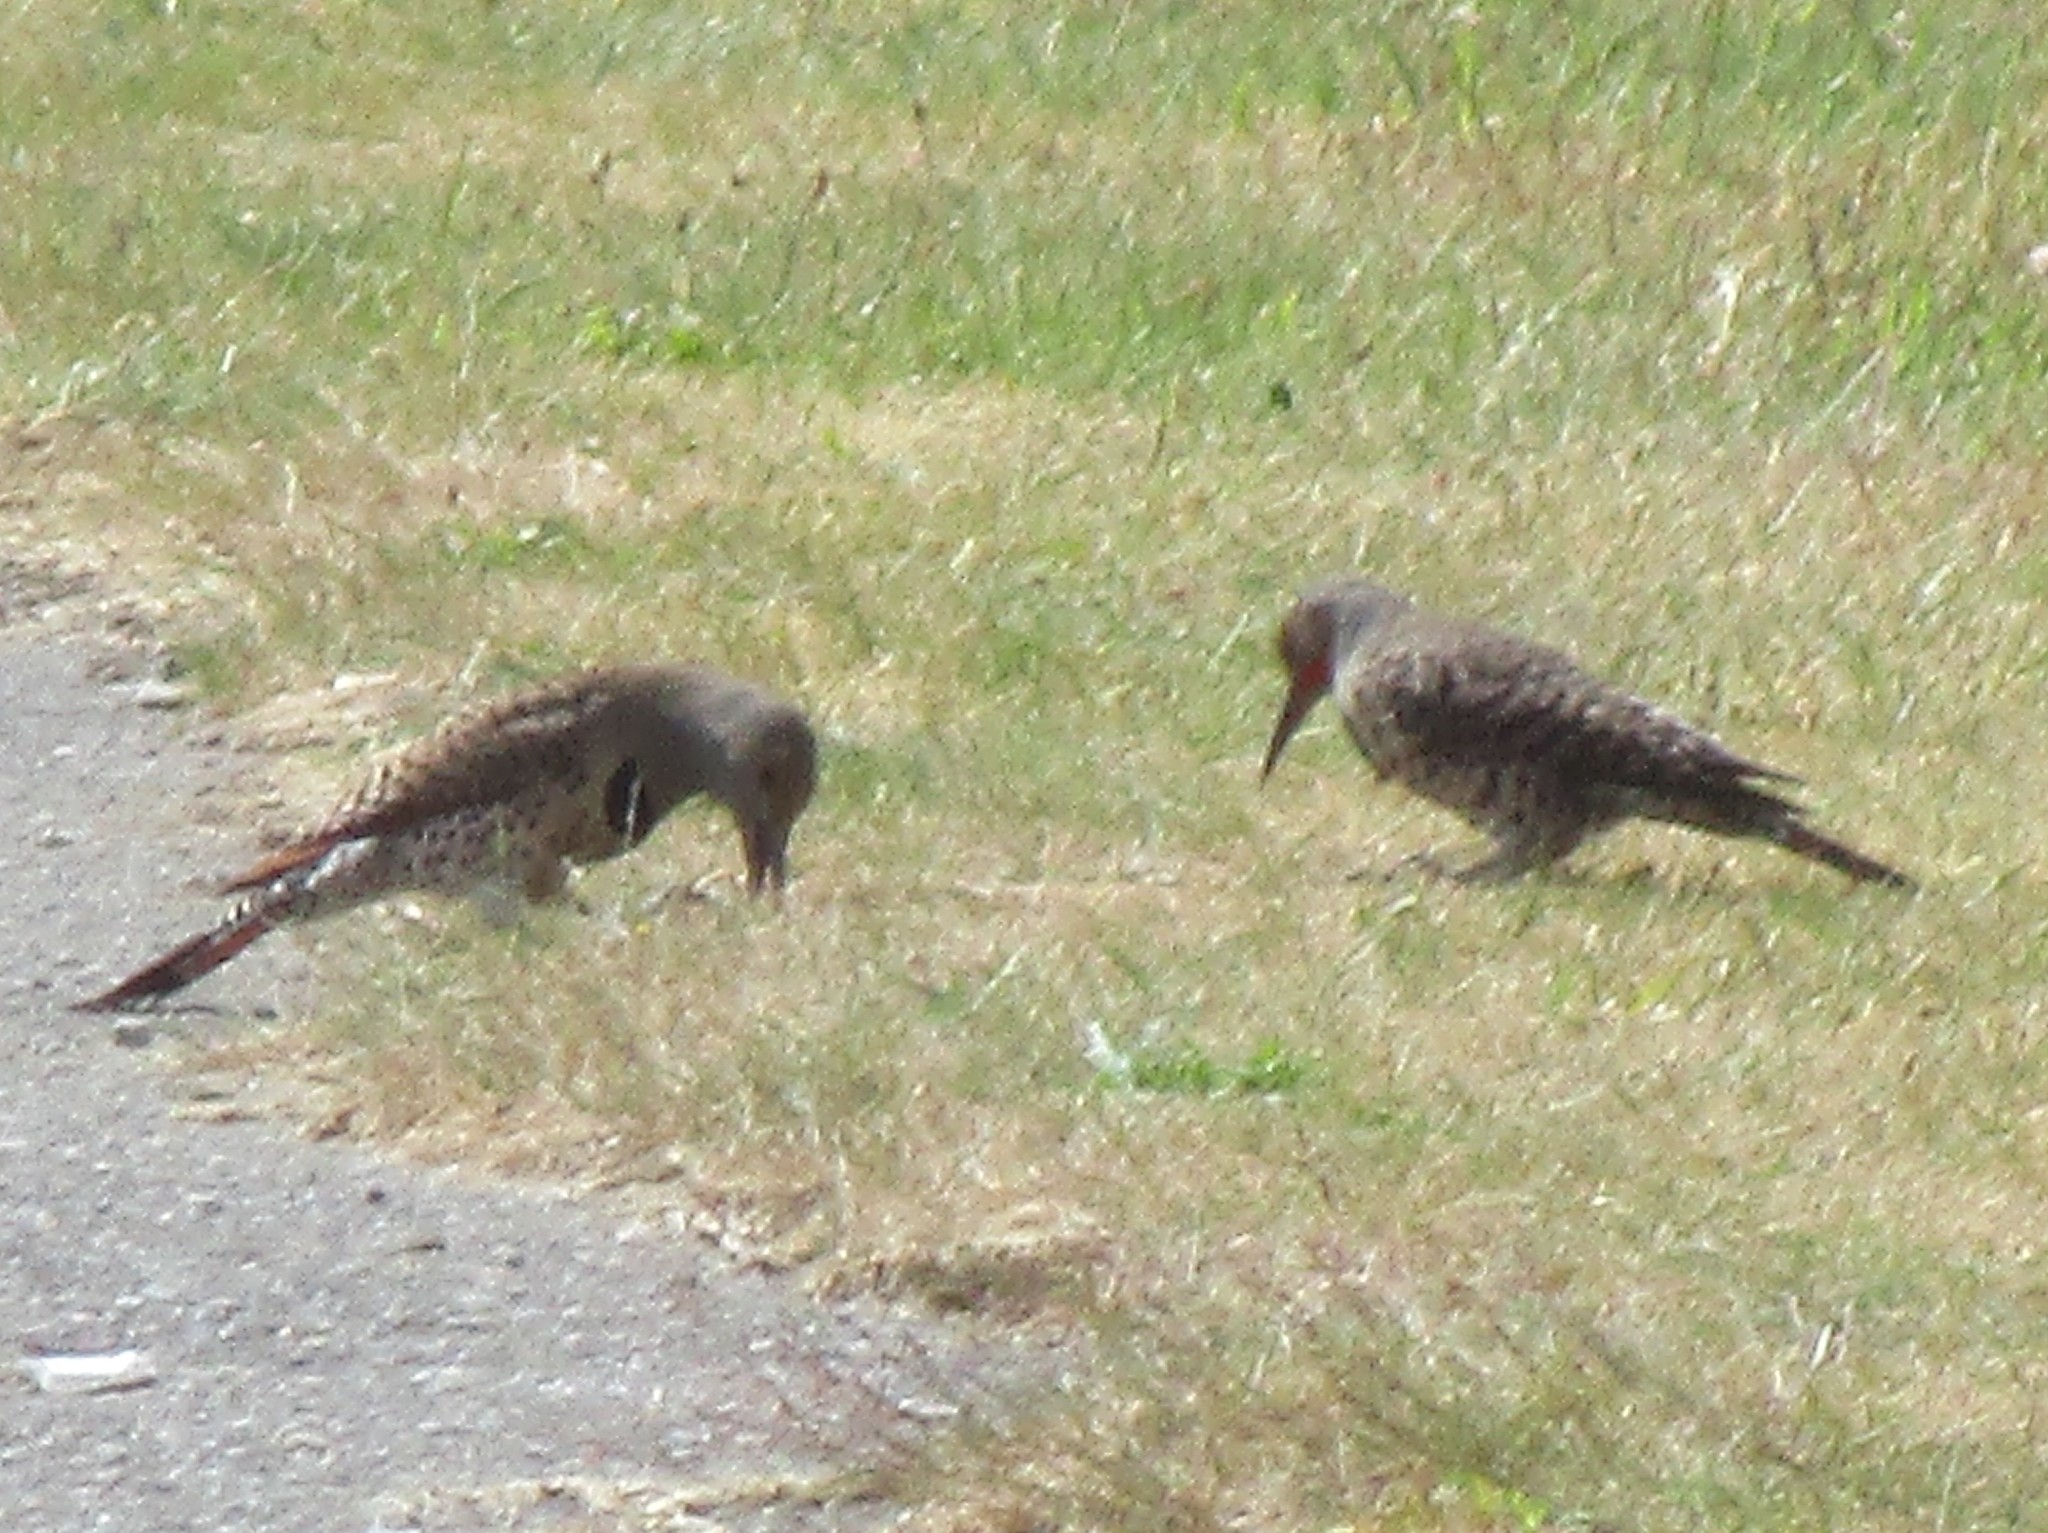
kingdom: Animalia
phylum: Chordata
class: Aves
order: Piciformes
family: Picidae
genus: Colaptes
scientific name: Colaptes auratus
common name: Northern flicker
